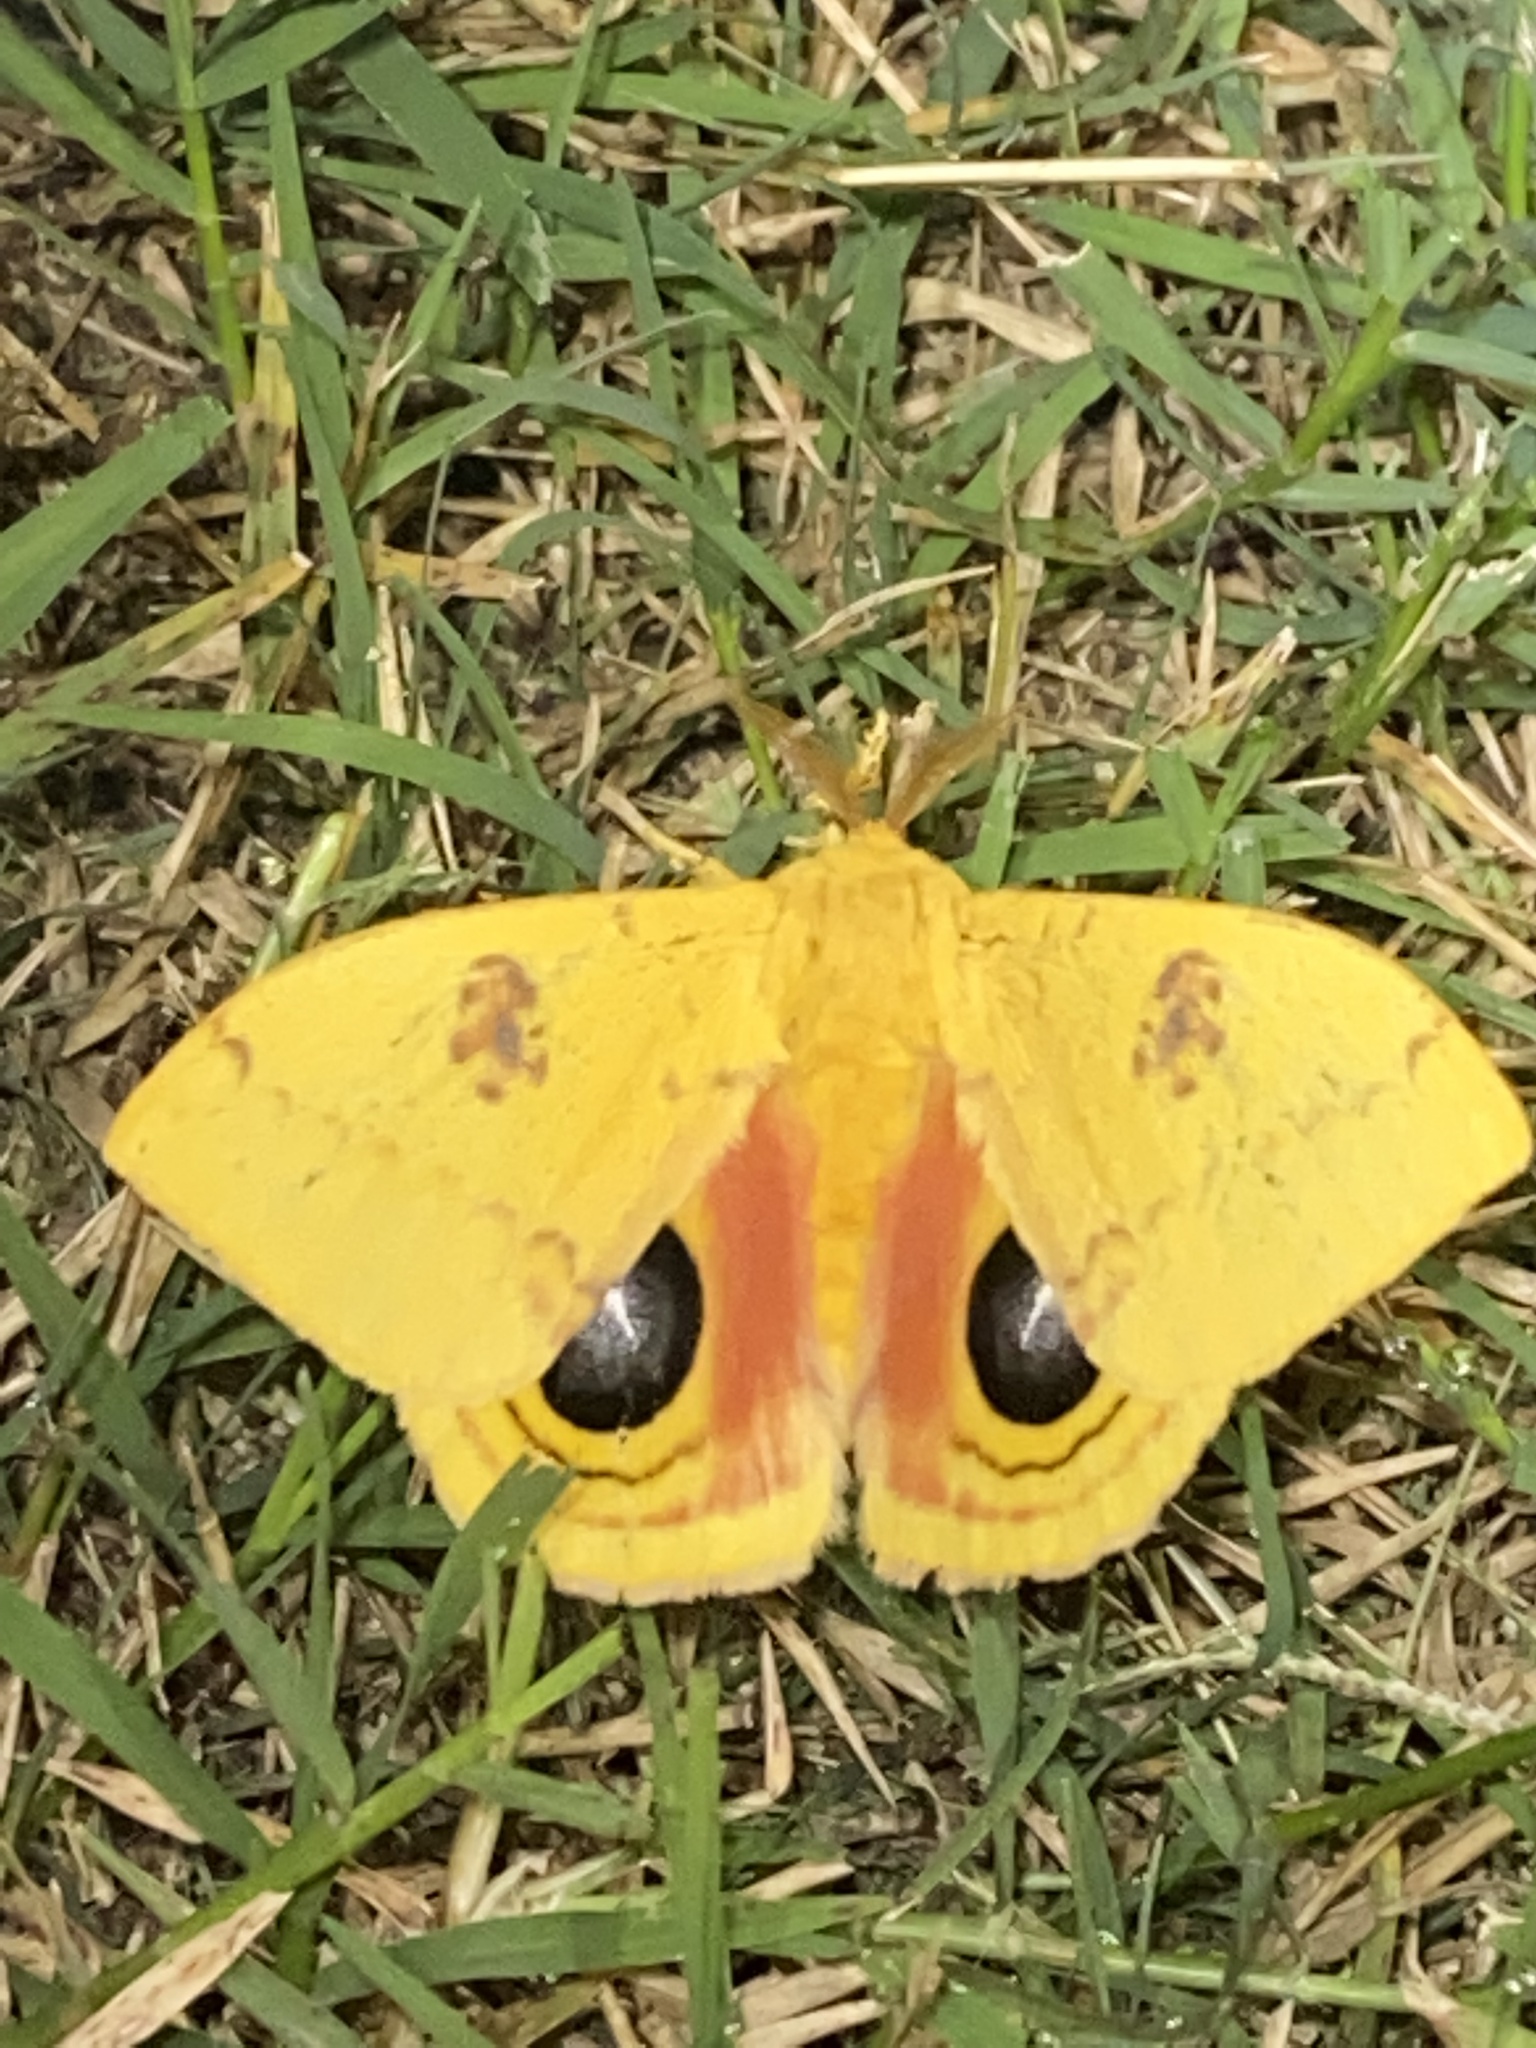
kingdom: Animalia
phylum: Arthropoda
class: Insecta
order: Lepidoptera
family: Saturniidae
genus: Automeris
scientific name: Automeris io
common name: Io moth
